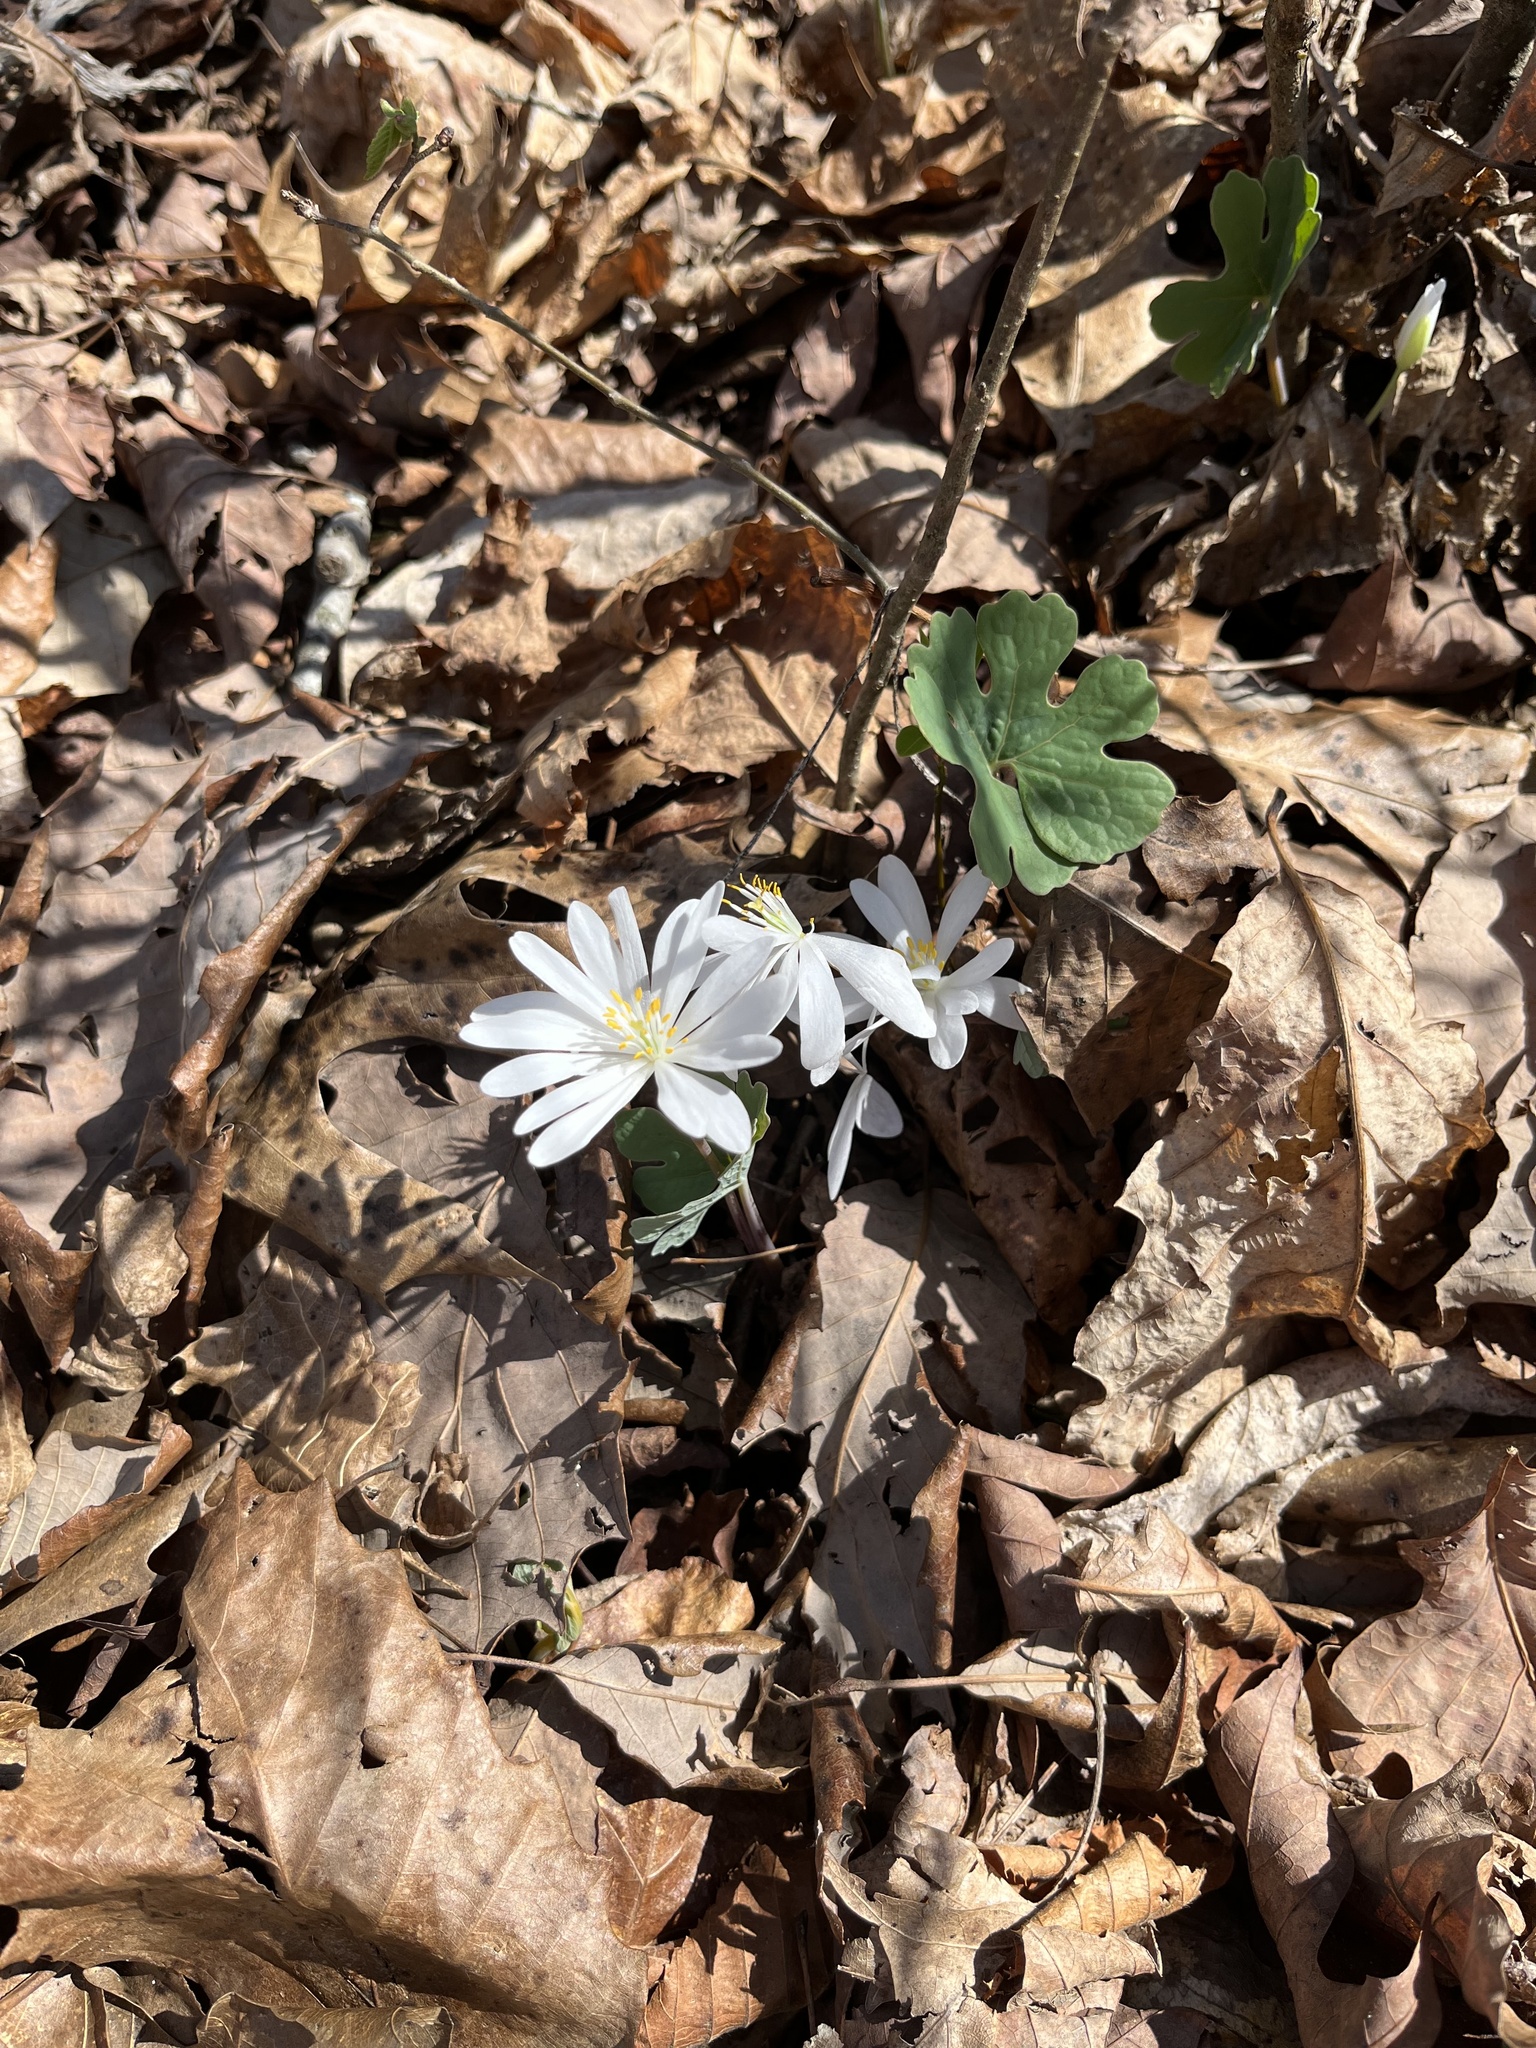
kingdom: Plantae
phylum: Tracheophyta
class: Magnoliopsida
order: Ranunculales
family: Papaveraceae
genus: Sanguinaria
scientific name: Sanguinaria canadensis
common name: Bloodroot
